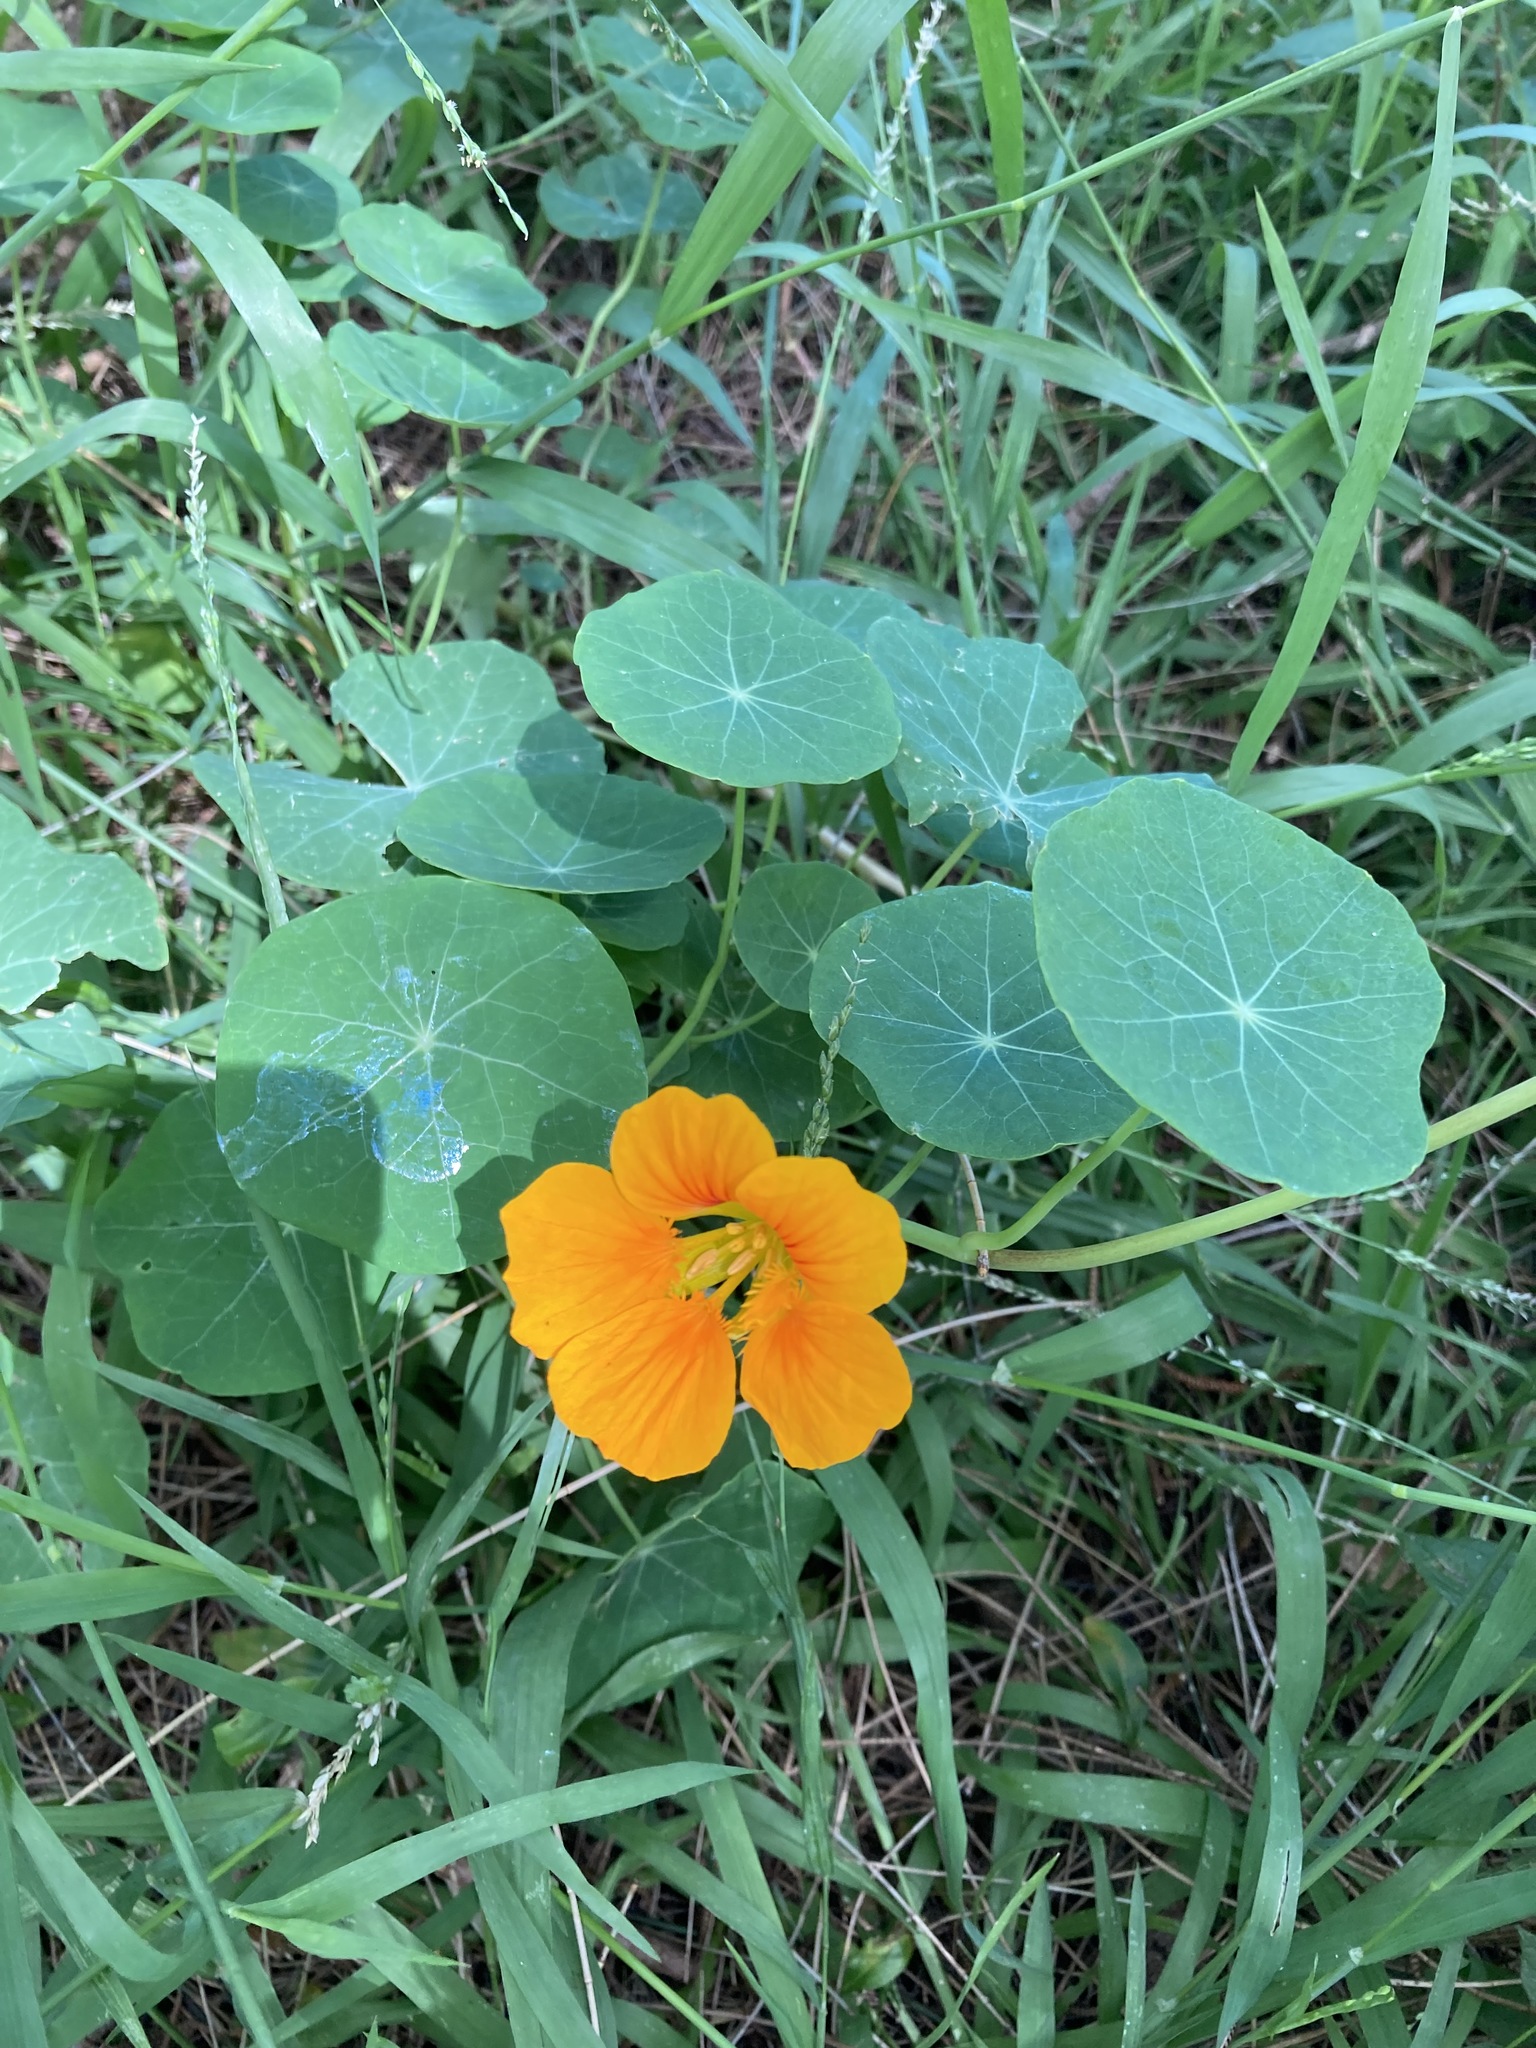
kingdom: Plantae
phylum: Tracheophyta
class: Magnoliopsida
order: Brassicales
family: Tropaeolaceae
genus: Tropaeolum
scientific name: Tropaeolum majus
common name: Nasturtium
